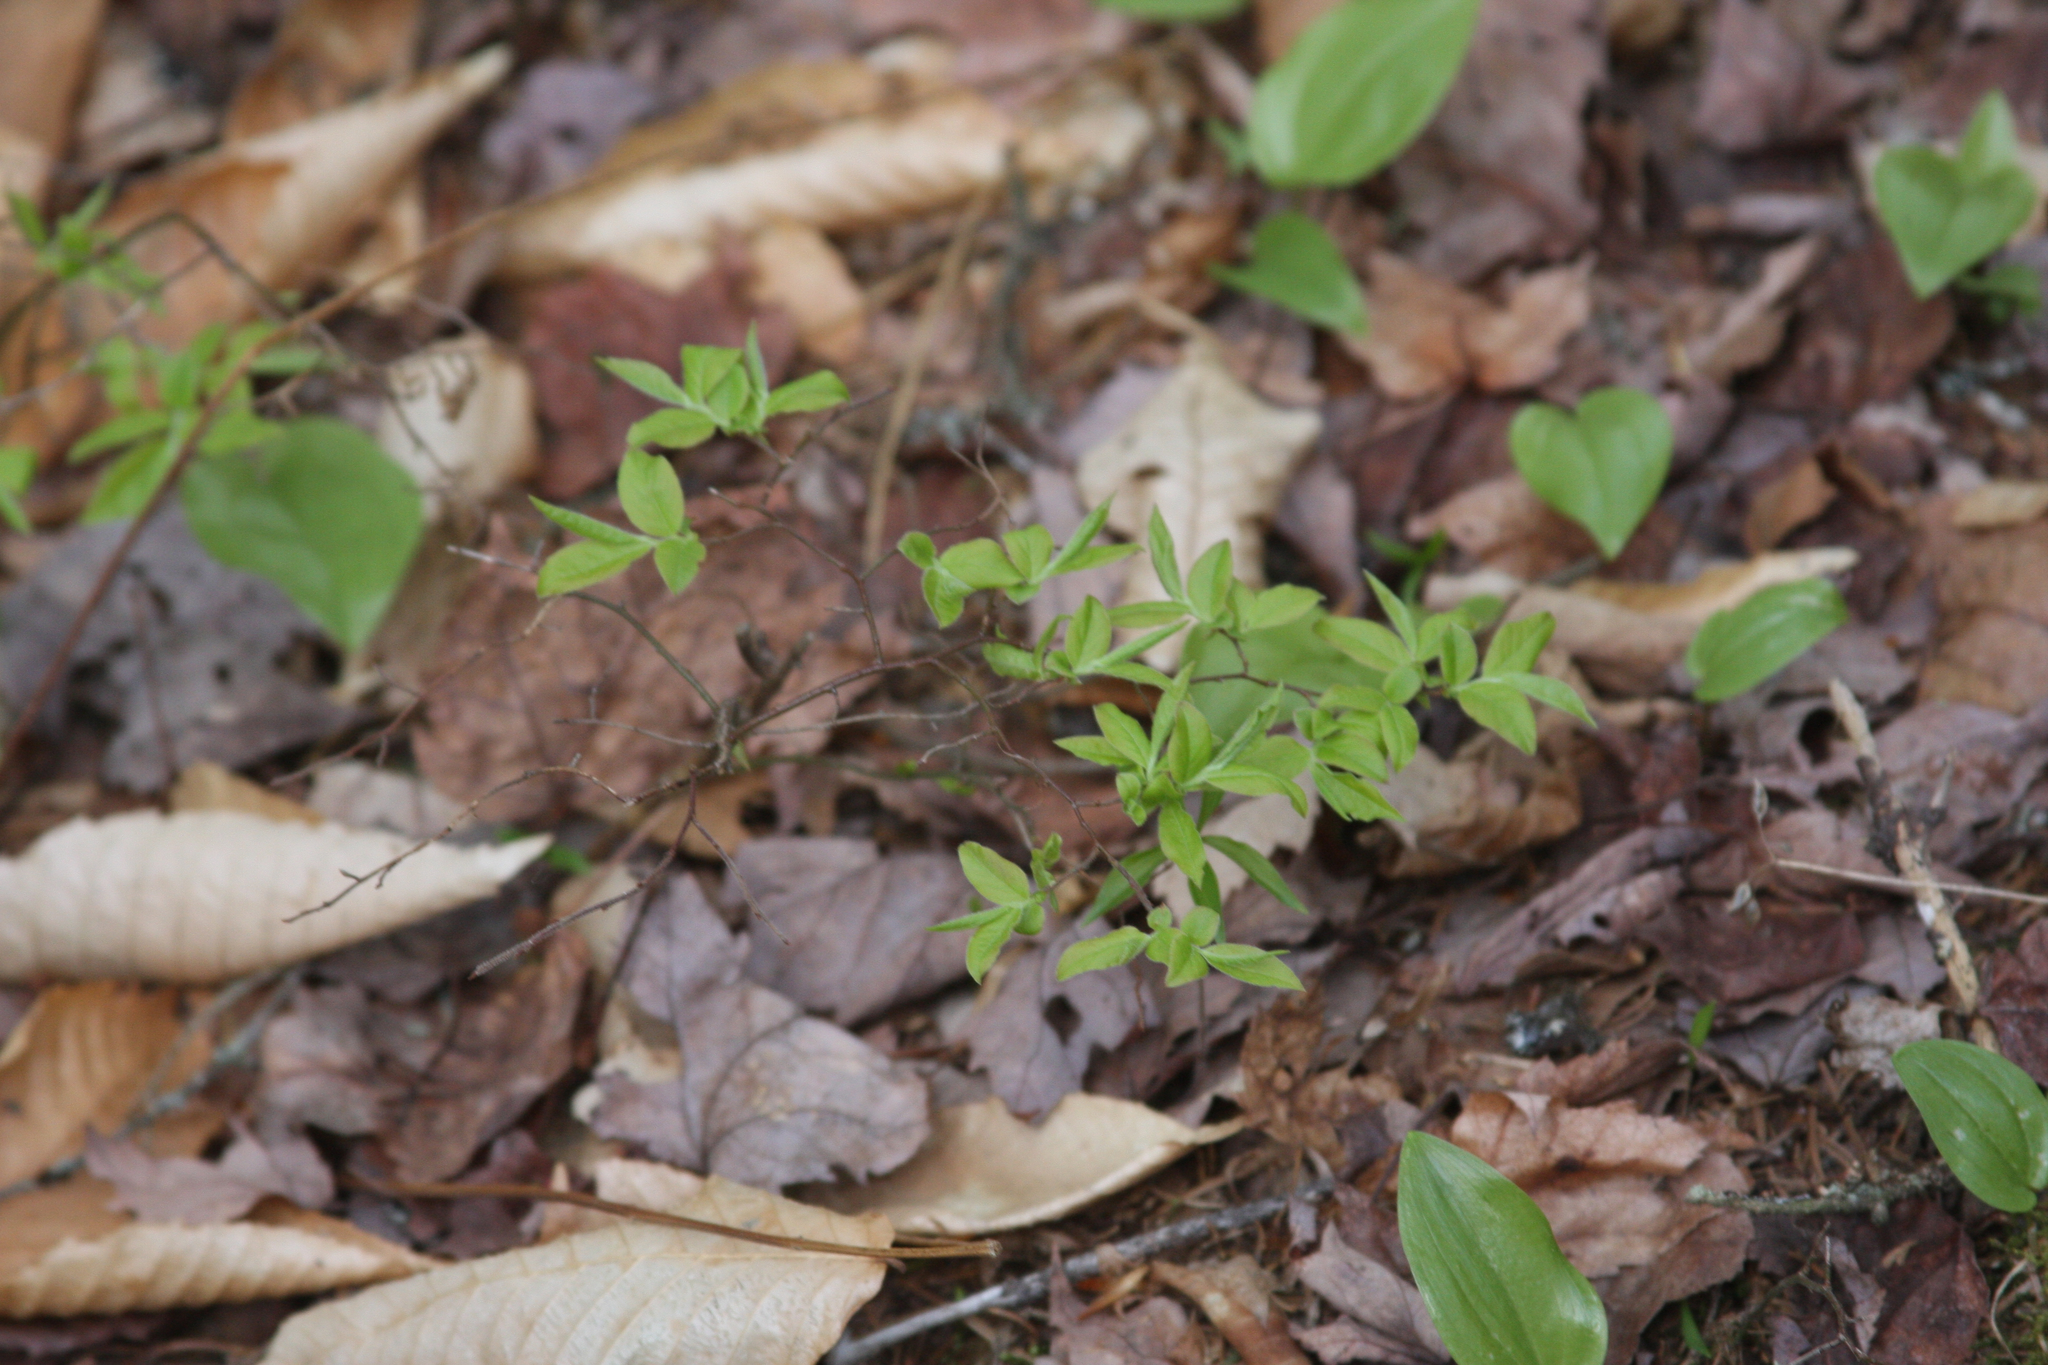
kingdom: Plantae
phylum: Tracheophyta
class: Liliopsida
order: Asparagales
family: Asparagaceae
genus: Maianthemum
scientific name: Maianthemum canadense
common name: False lily-of-the-valley
